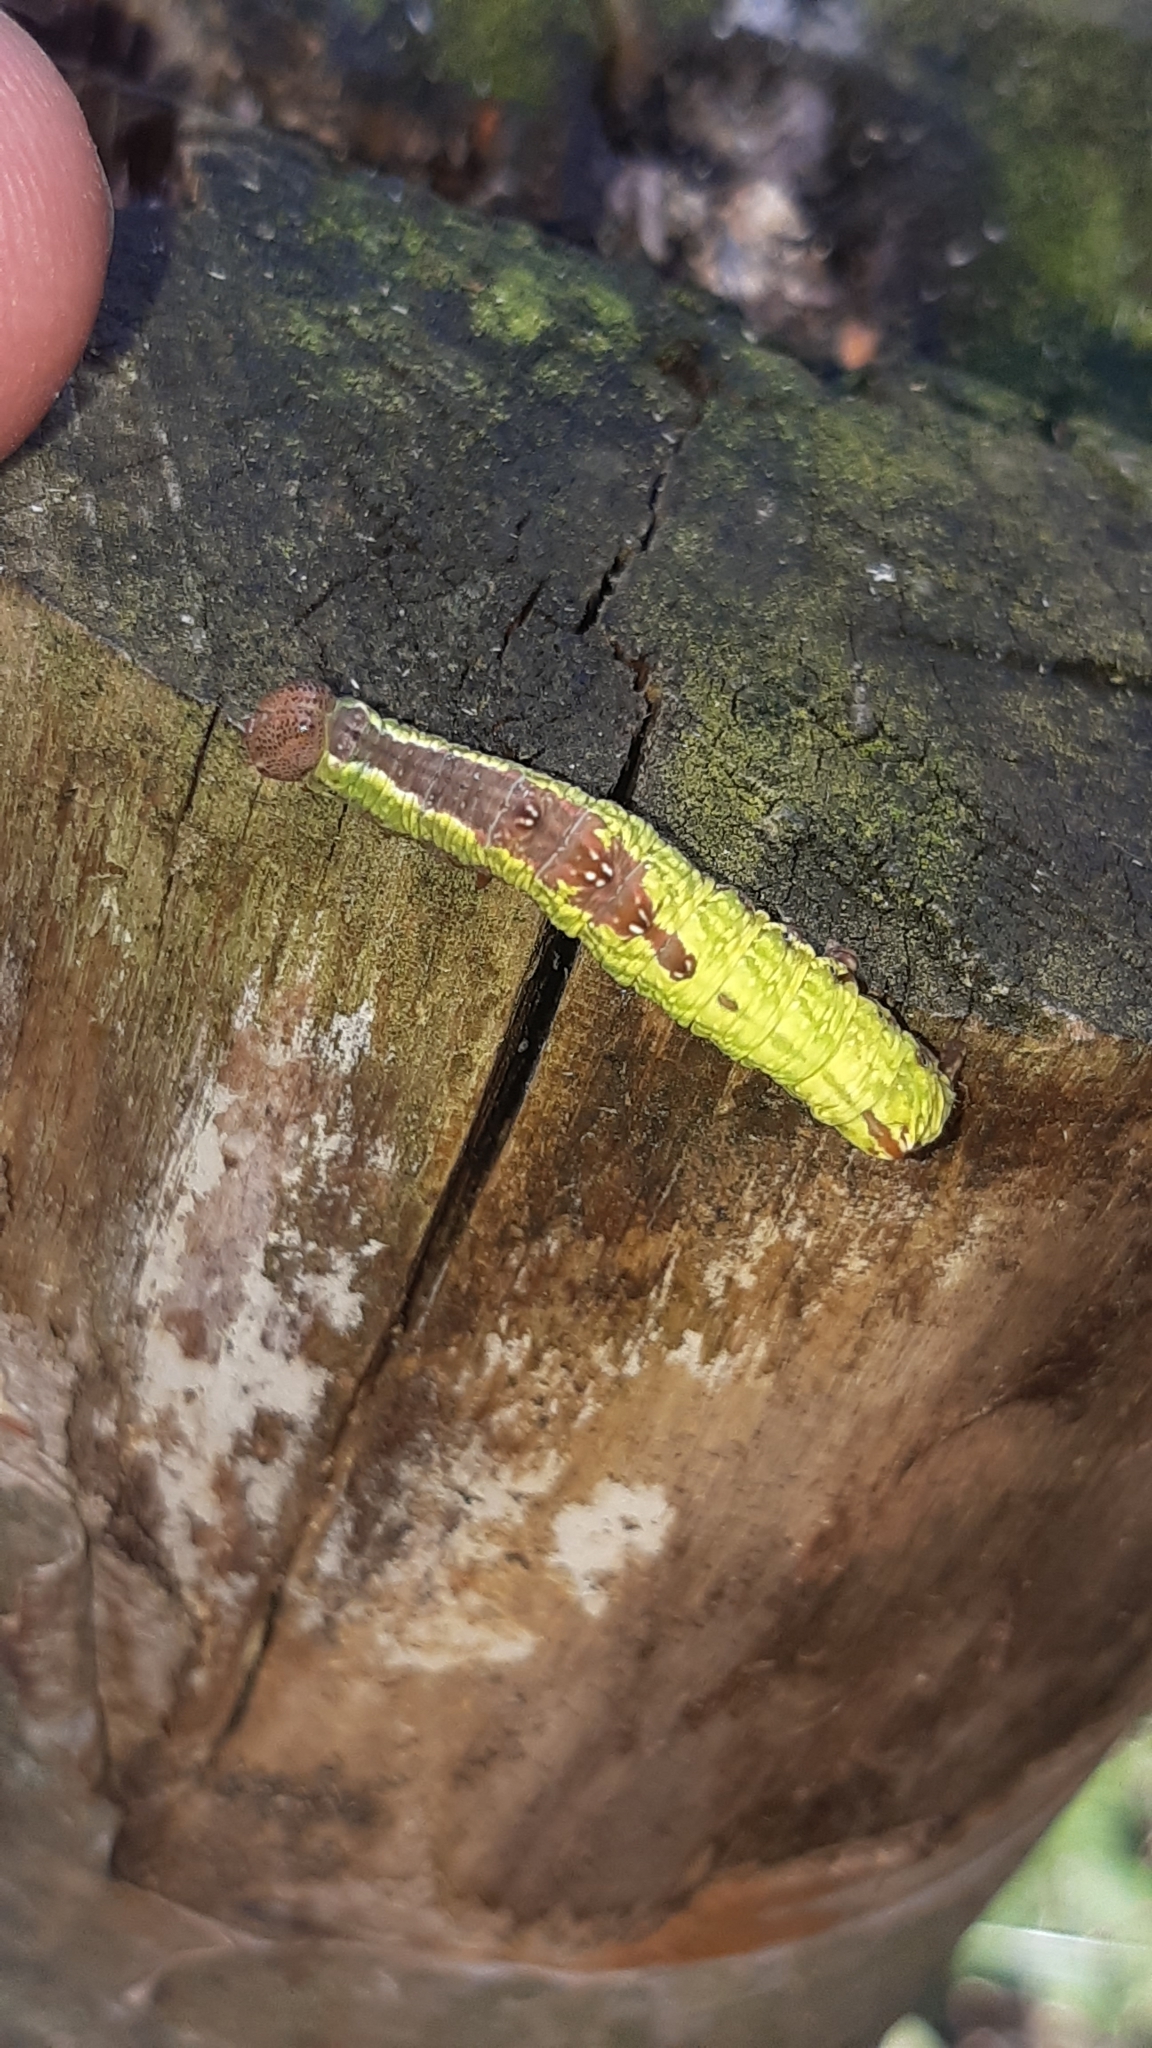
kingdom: Animalia
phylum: Arthropoda
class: Insecta
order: Lepidoptera
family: Notodontidae
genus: Notodonta
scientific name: Notodonta dromedarius
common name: Iron prominent
